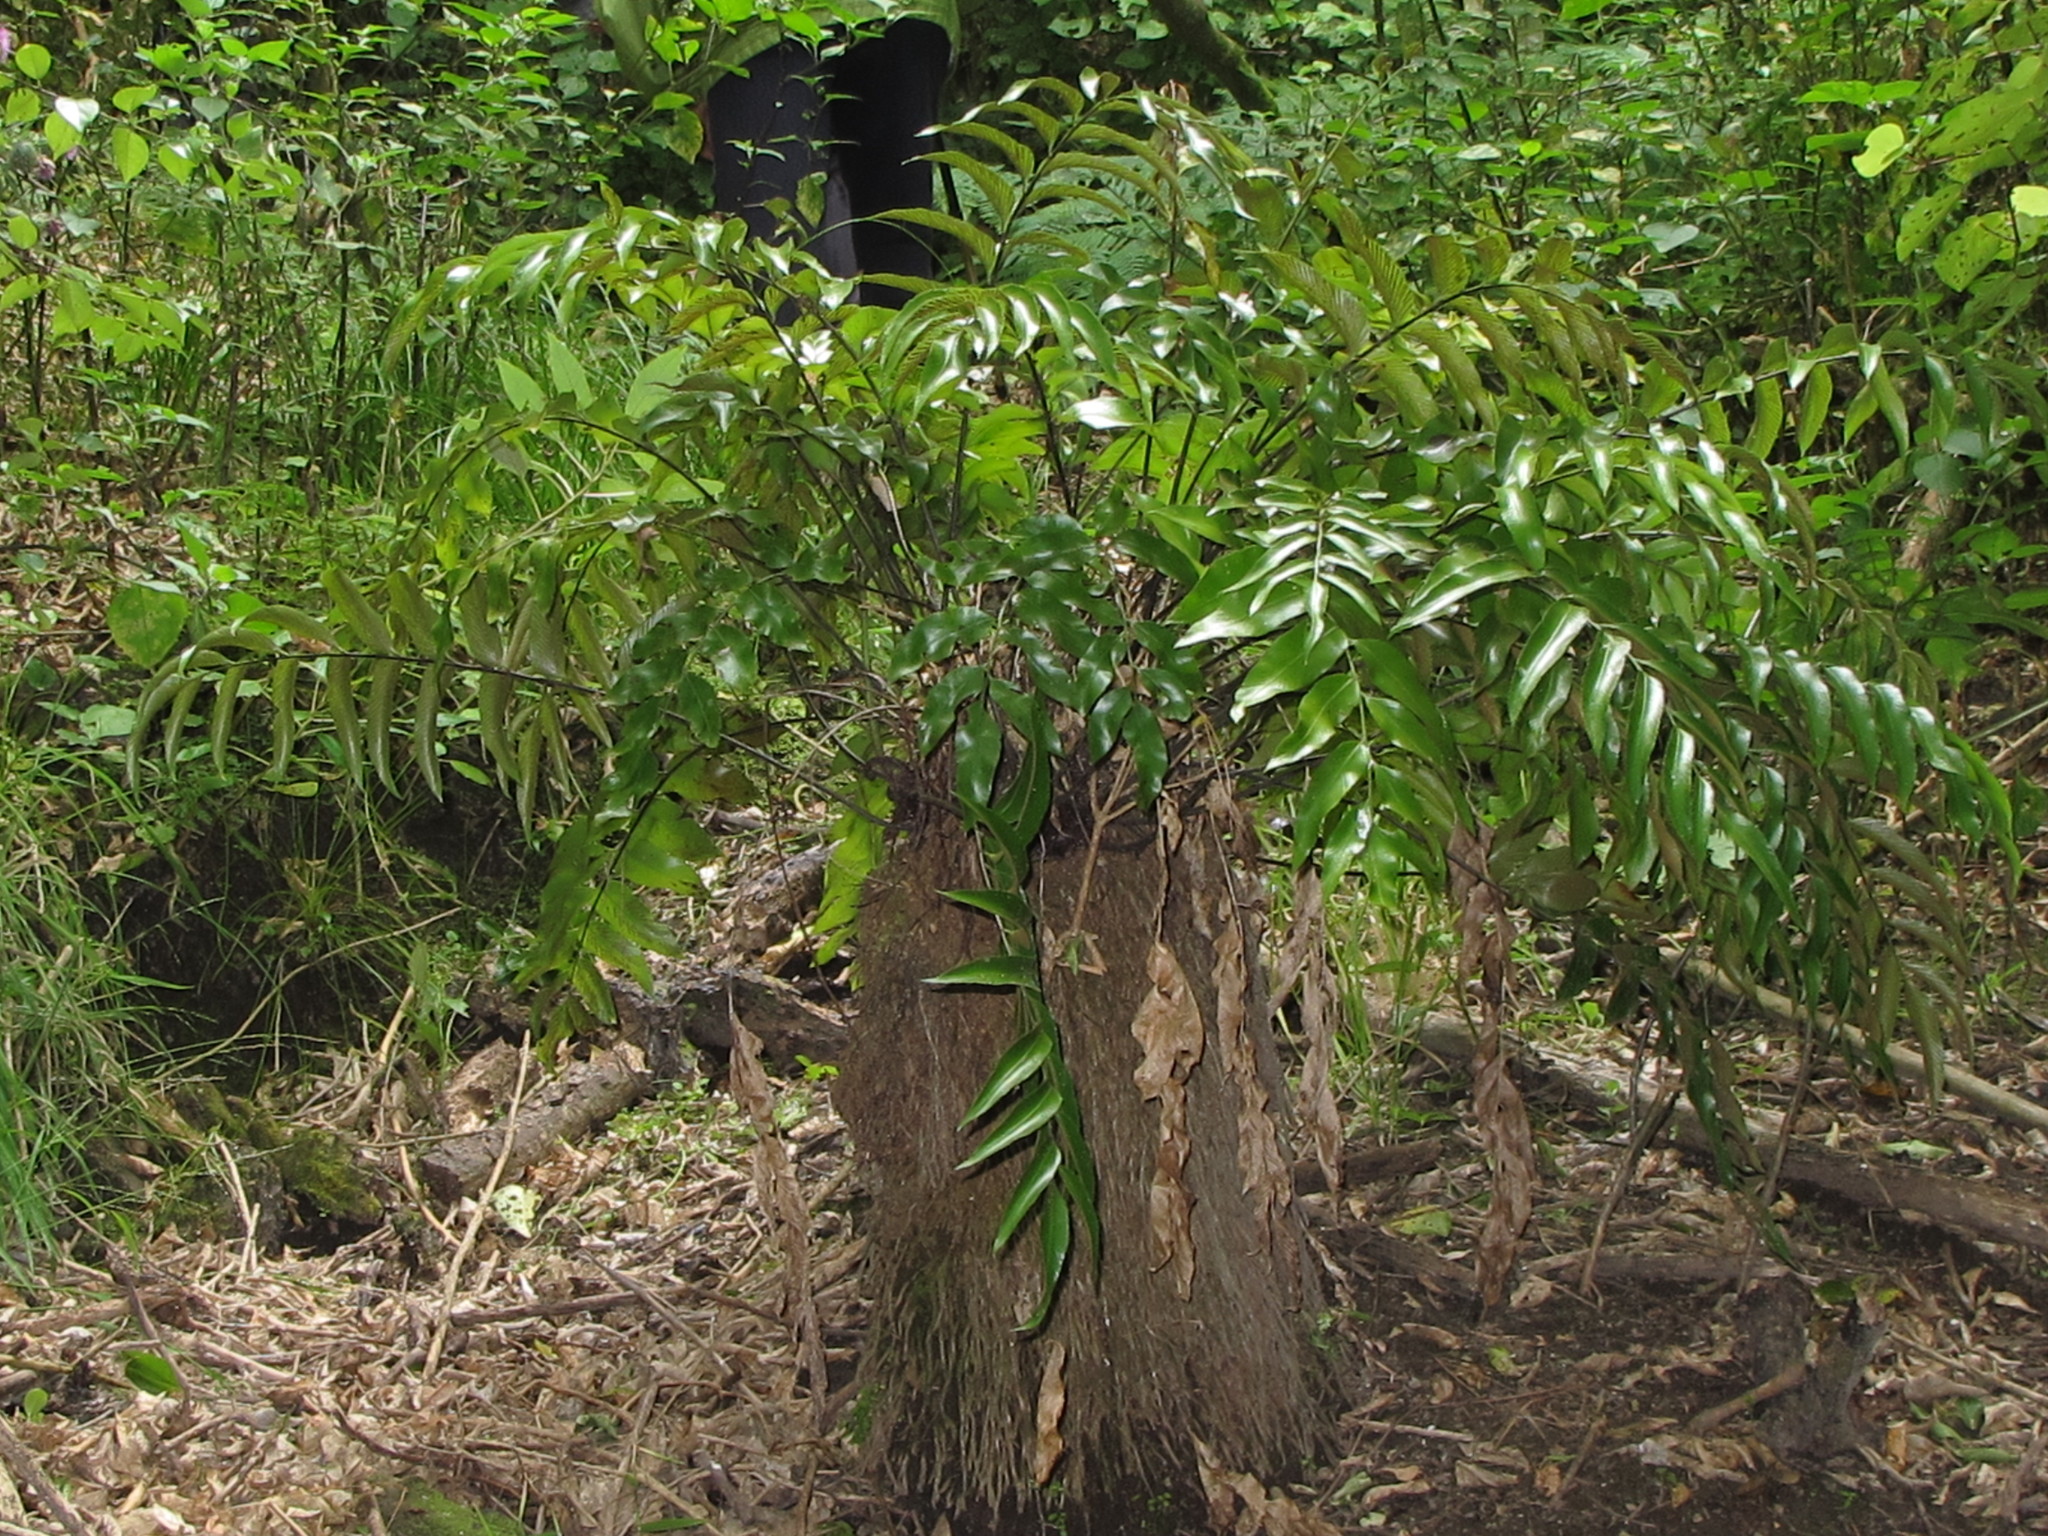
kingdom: Plantae
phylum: Tracheophyta
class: Polypodiopsida
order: Polypodiales
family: Aspleniaceae
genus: Asplenium
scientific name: Asplenium oblongifolium
